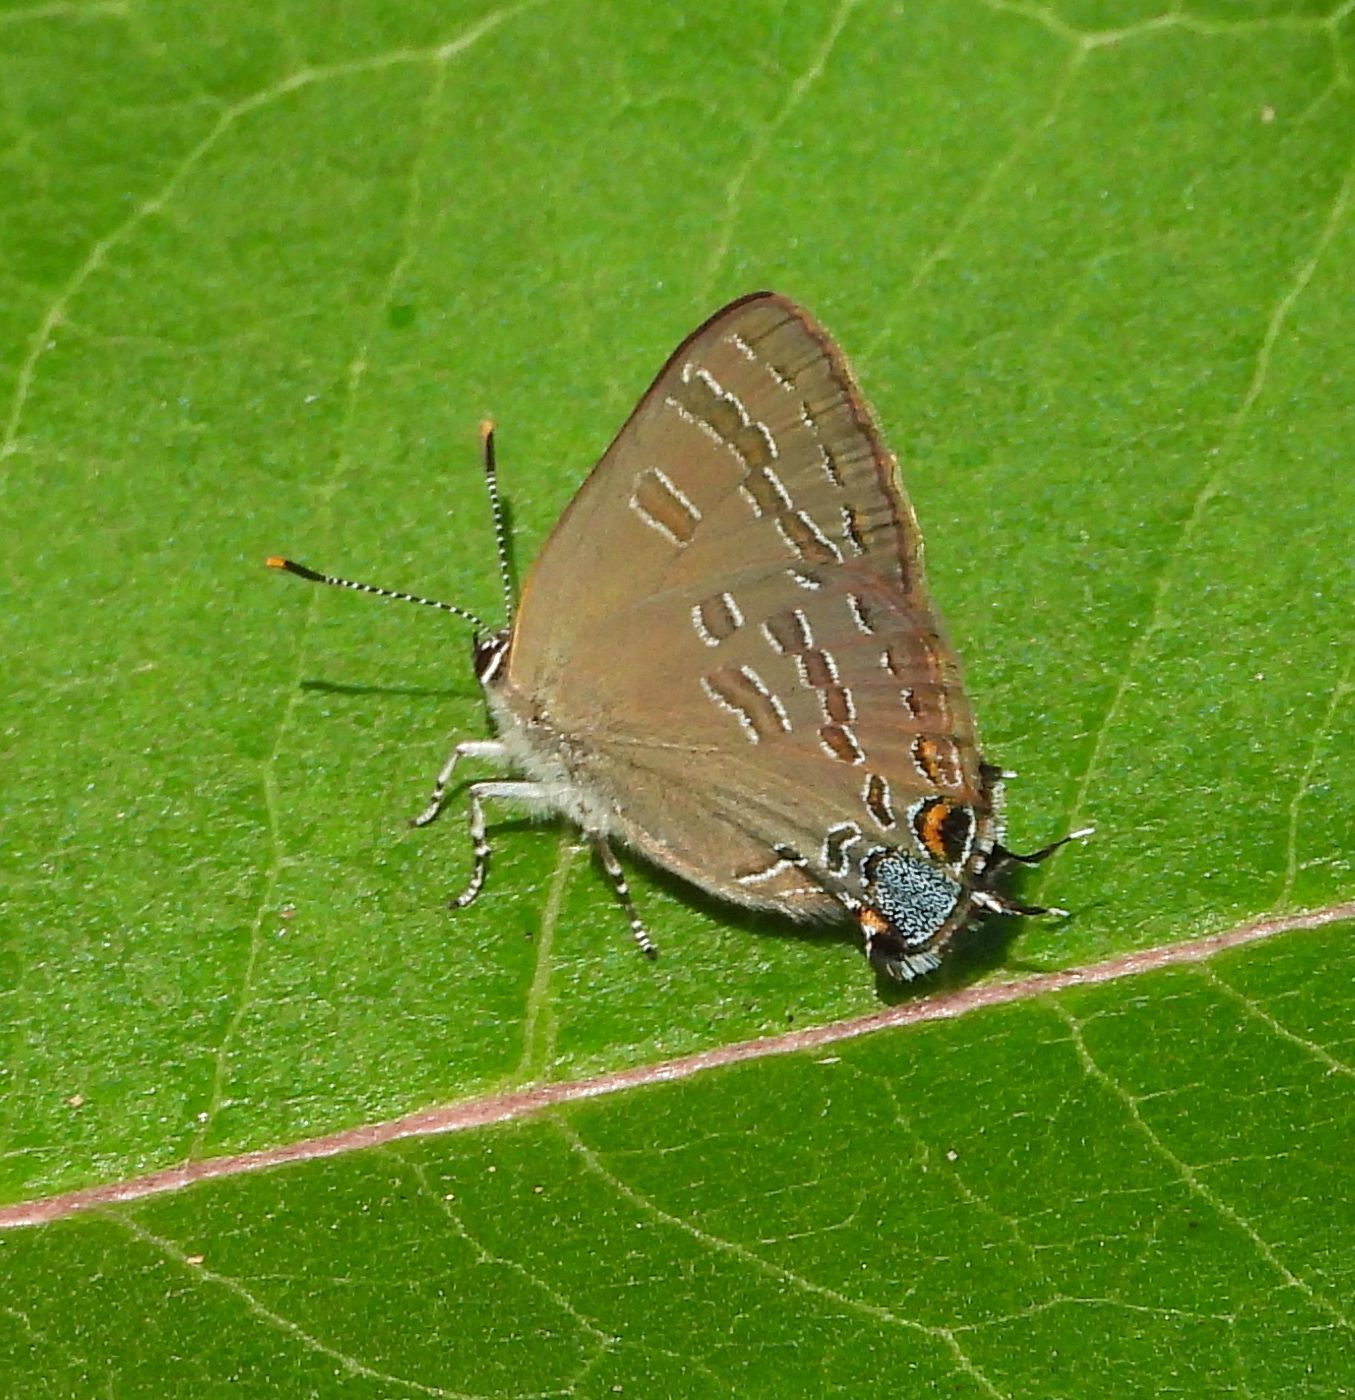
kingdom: Animalia
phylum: Arthropoda
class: Insecta
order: Lepidoptera
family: Lycaenidae
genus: Strymon
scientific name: Strymon caryaevorus
